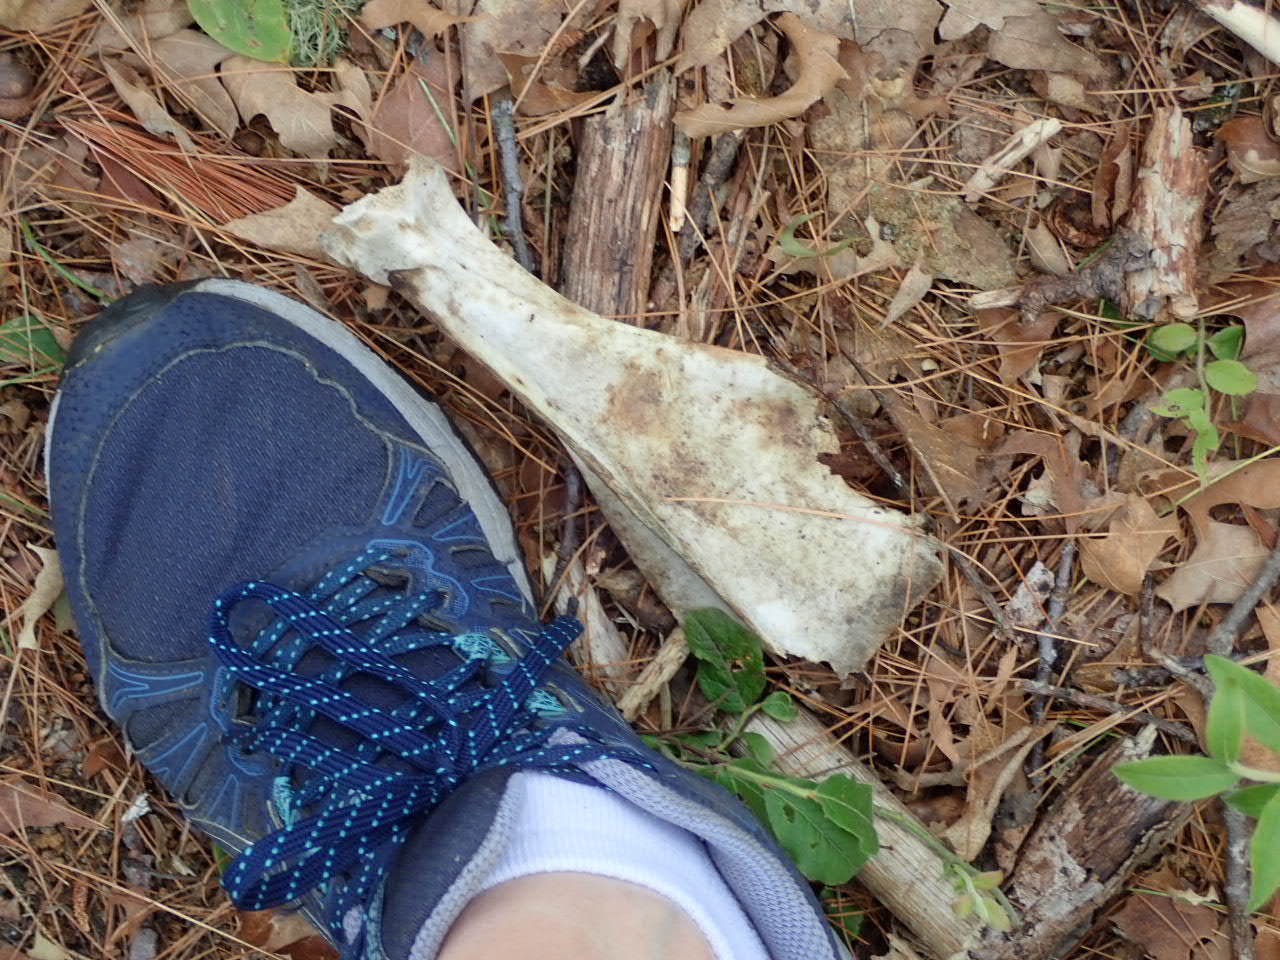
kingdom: Animalia
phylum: Chordata
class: Mammalia
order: Artiodactyla
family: Cervidae
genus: Odocoileus
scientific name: Odocoileus virginianus
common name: White-tailed deer
